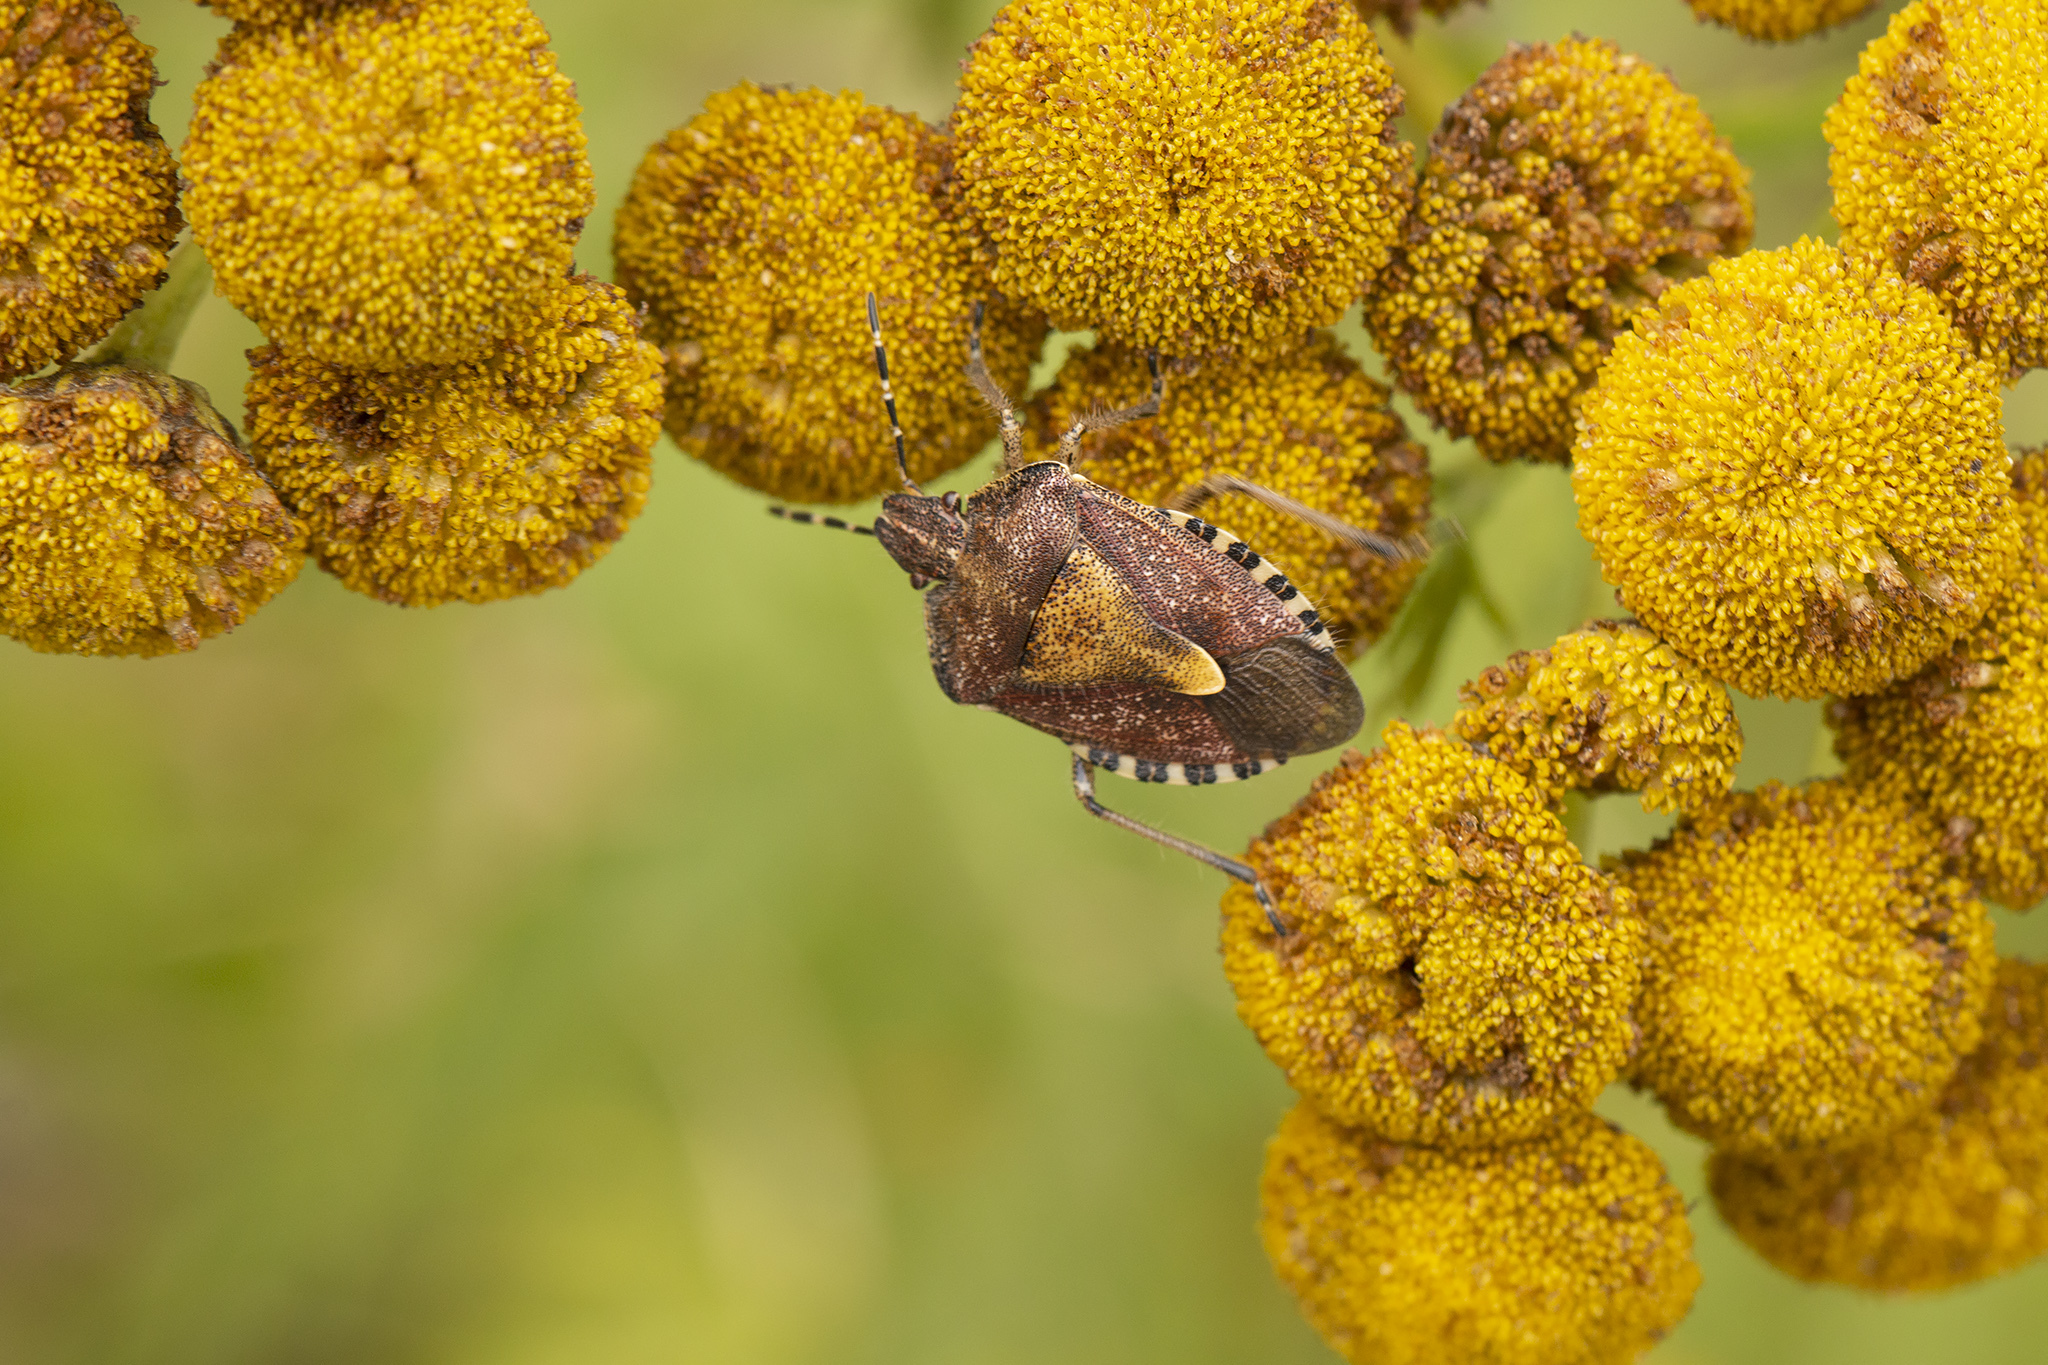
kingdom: Animalia
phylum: Arthropoda
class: Insecta
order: Hemiptera
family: Pentatomidae
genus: Dolycoris
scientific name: Dolycoris baccarum
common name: Sloe bug
